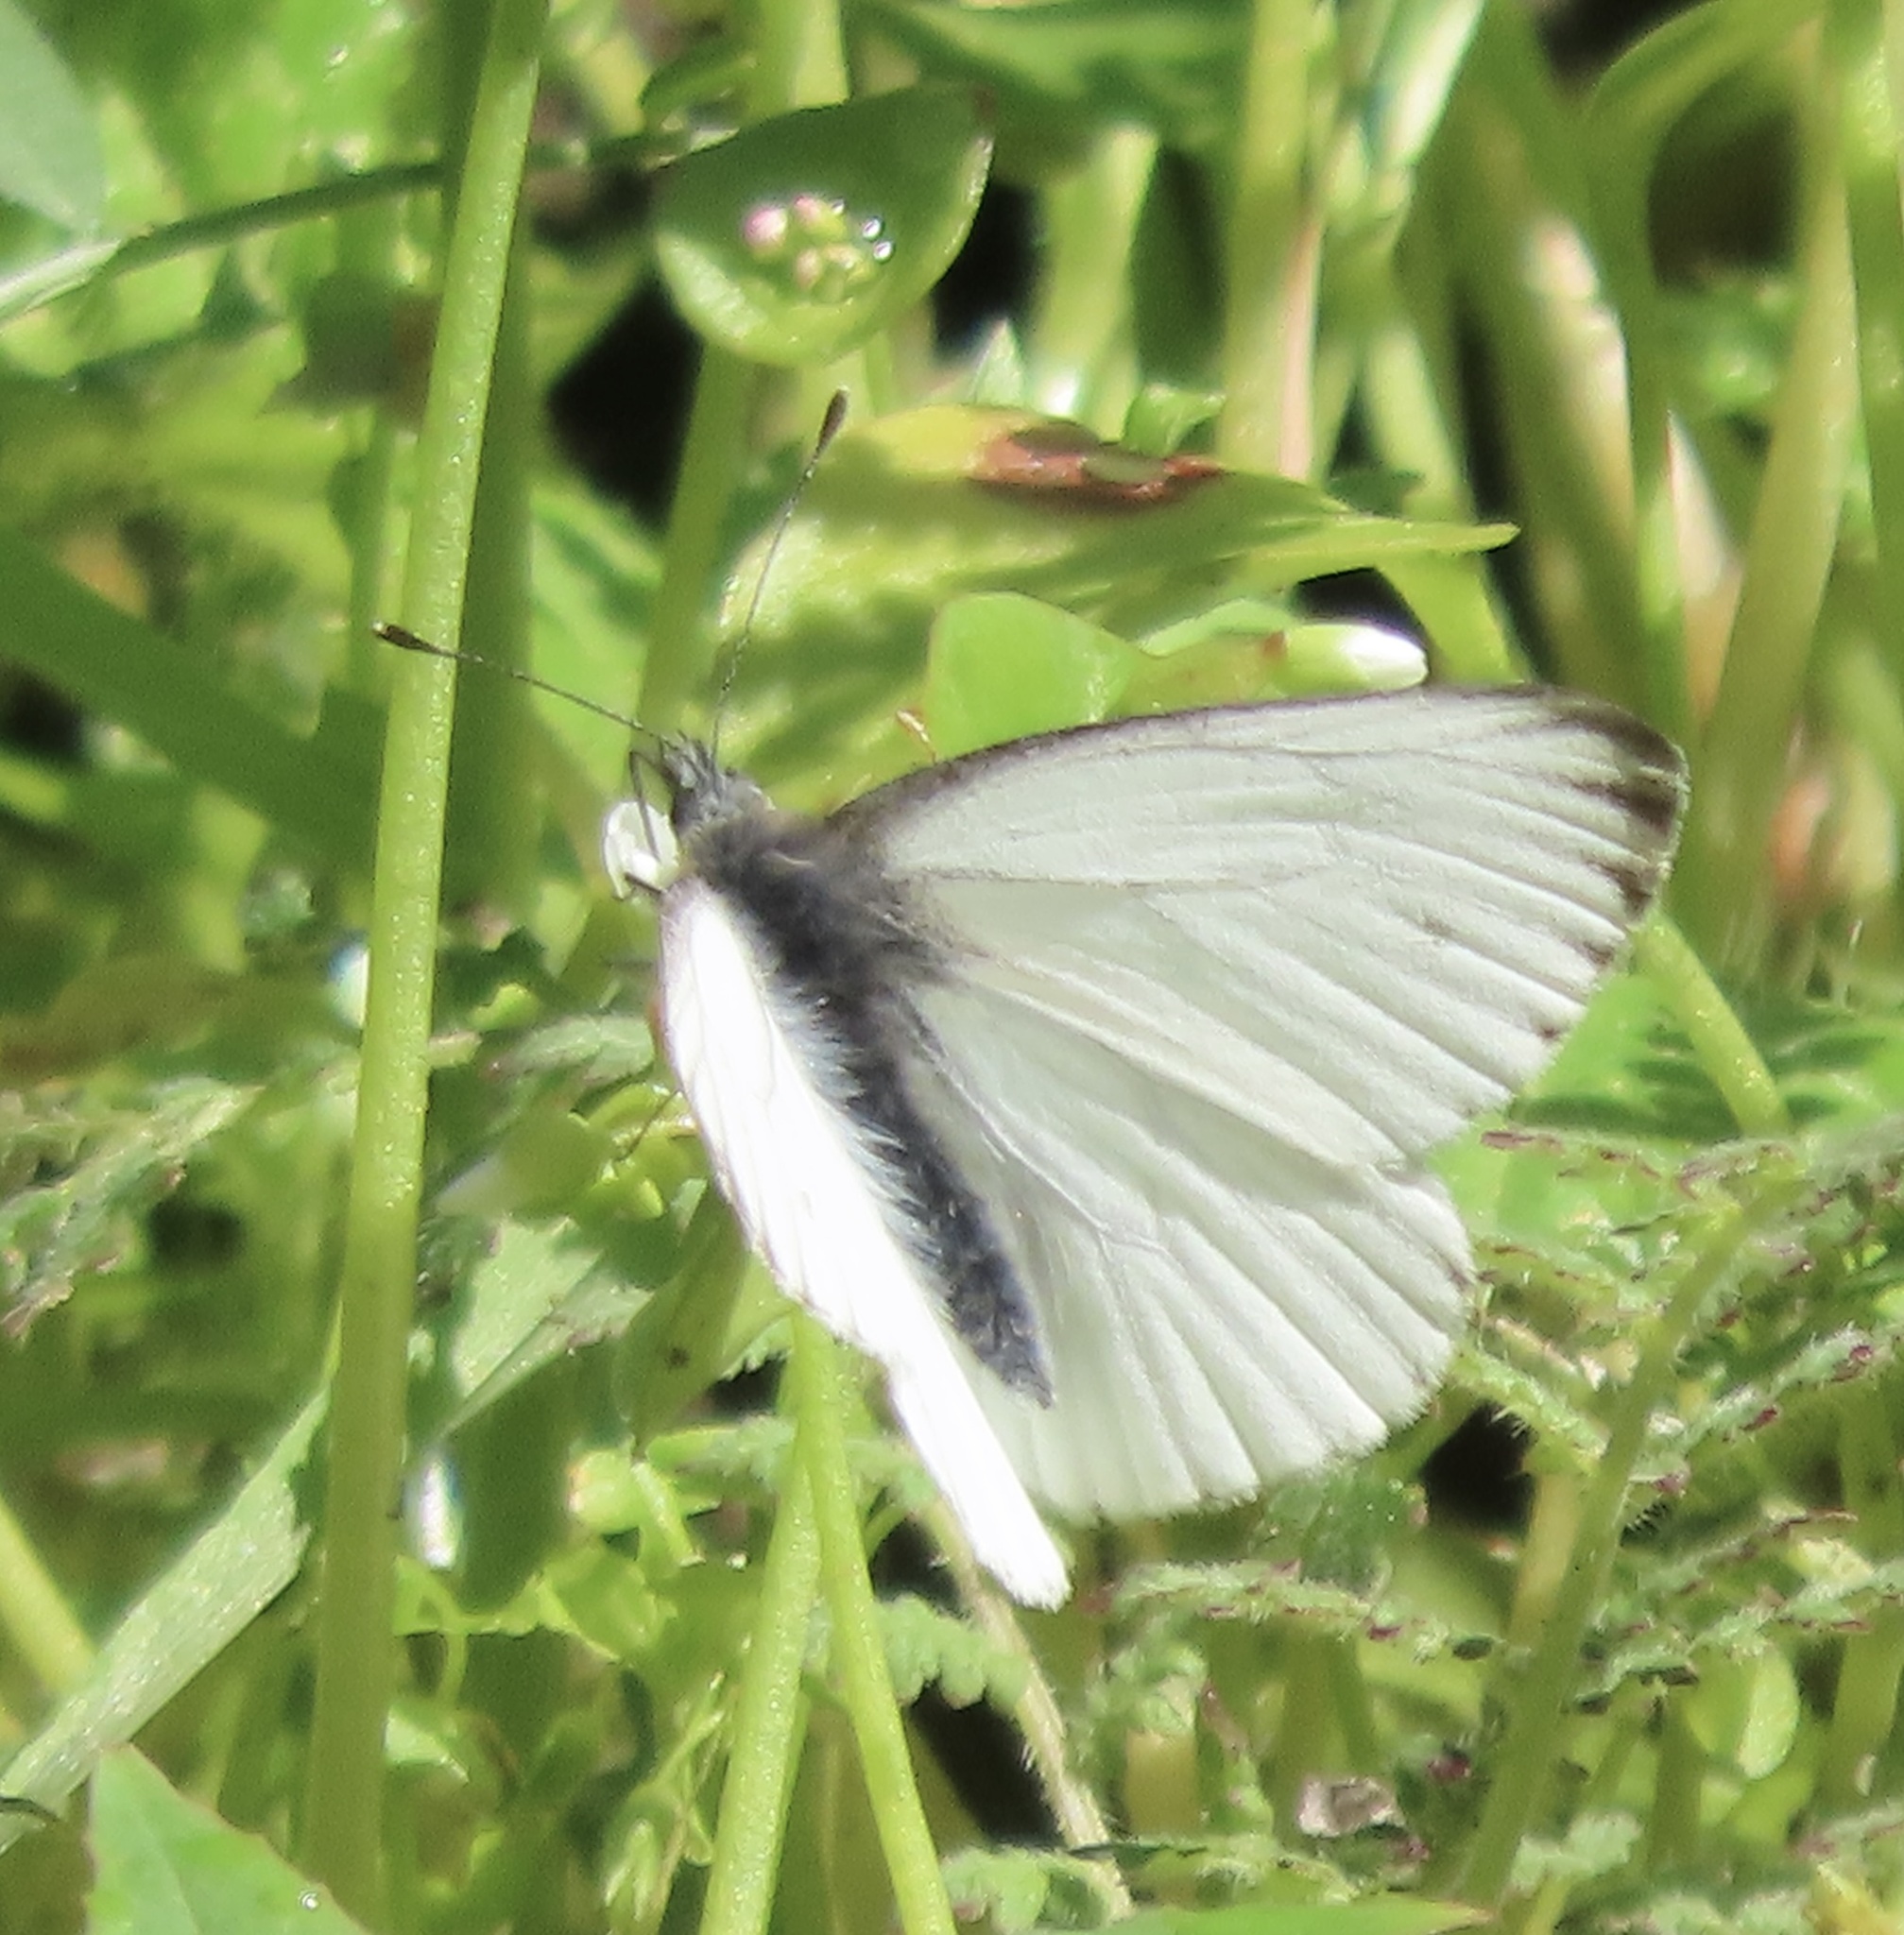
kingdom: Animalia
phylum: Arthropoda
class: Insecta
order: Lepidoptera
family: Pieridae
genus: Pieris
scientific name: Pieris marginalis
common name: Margined white
